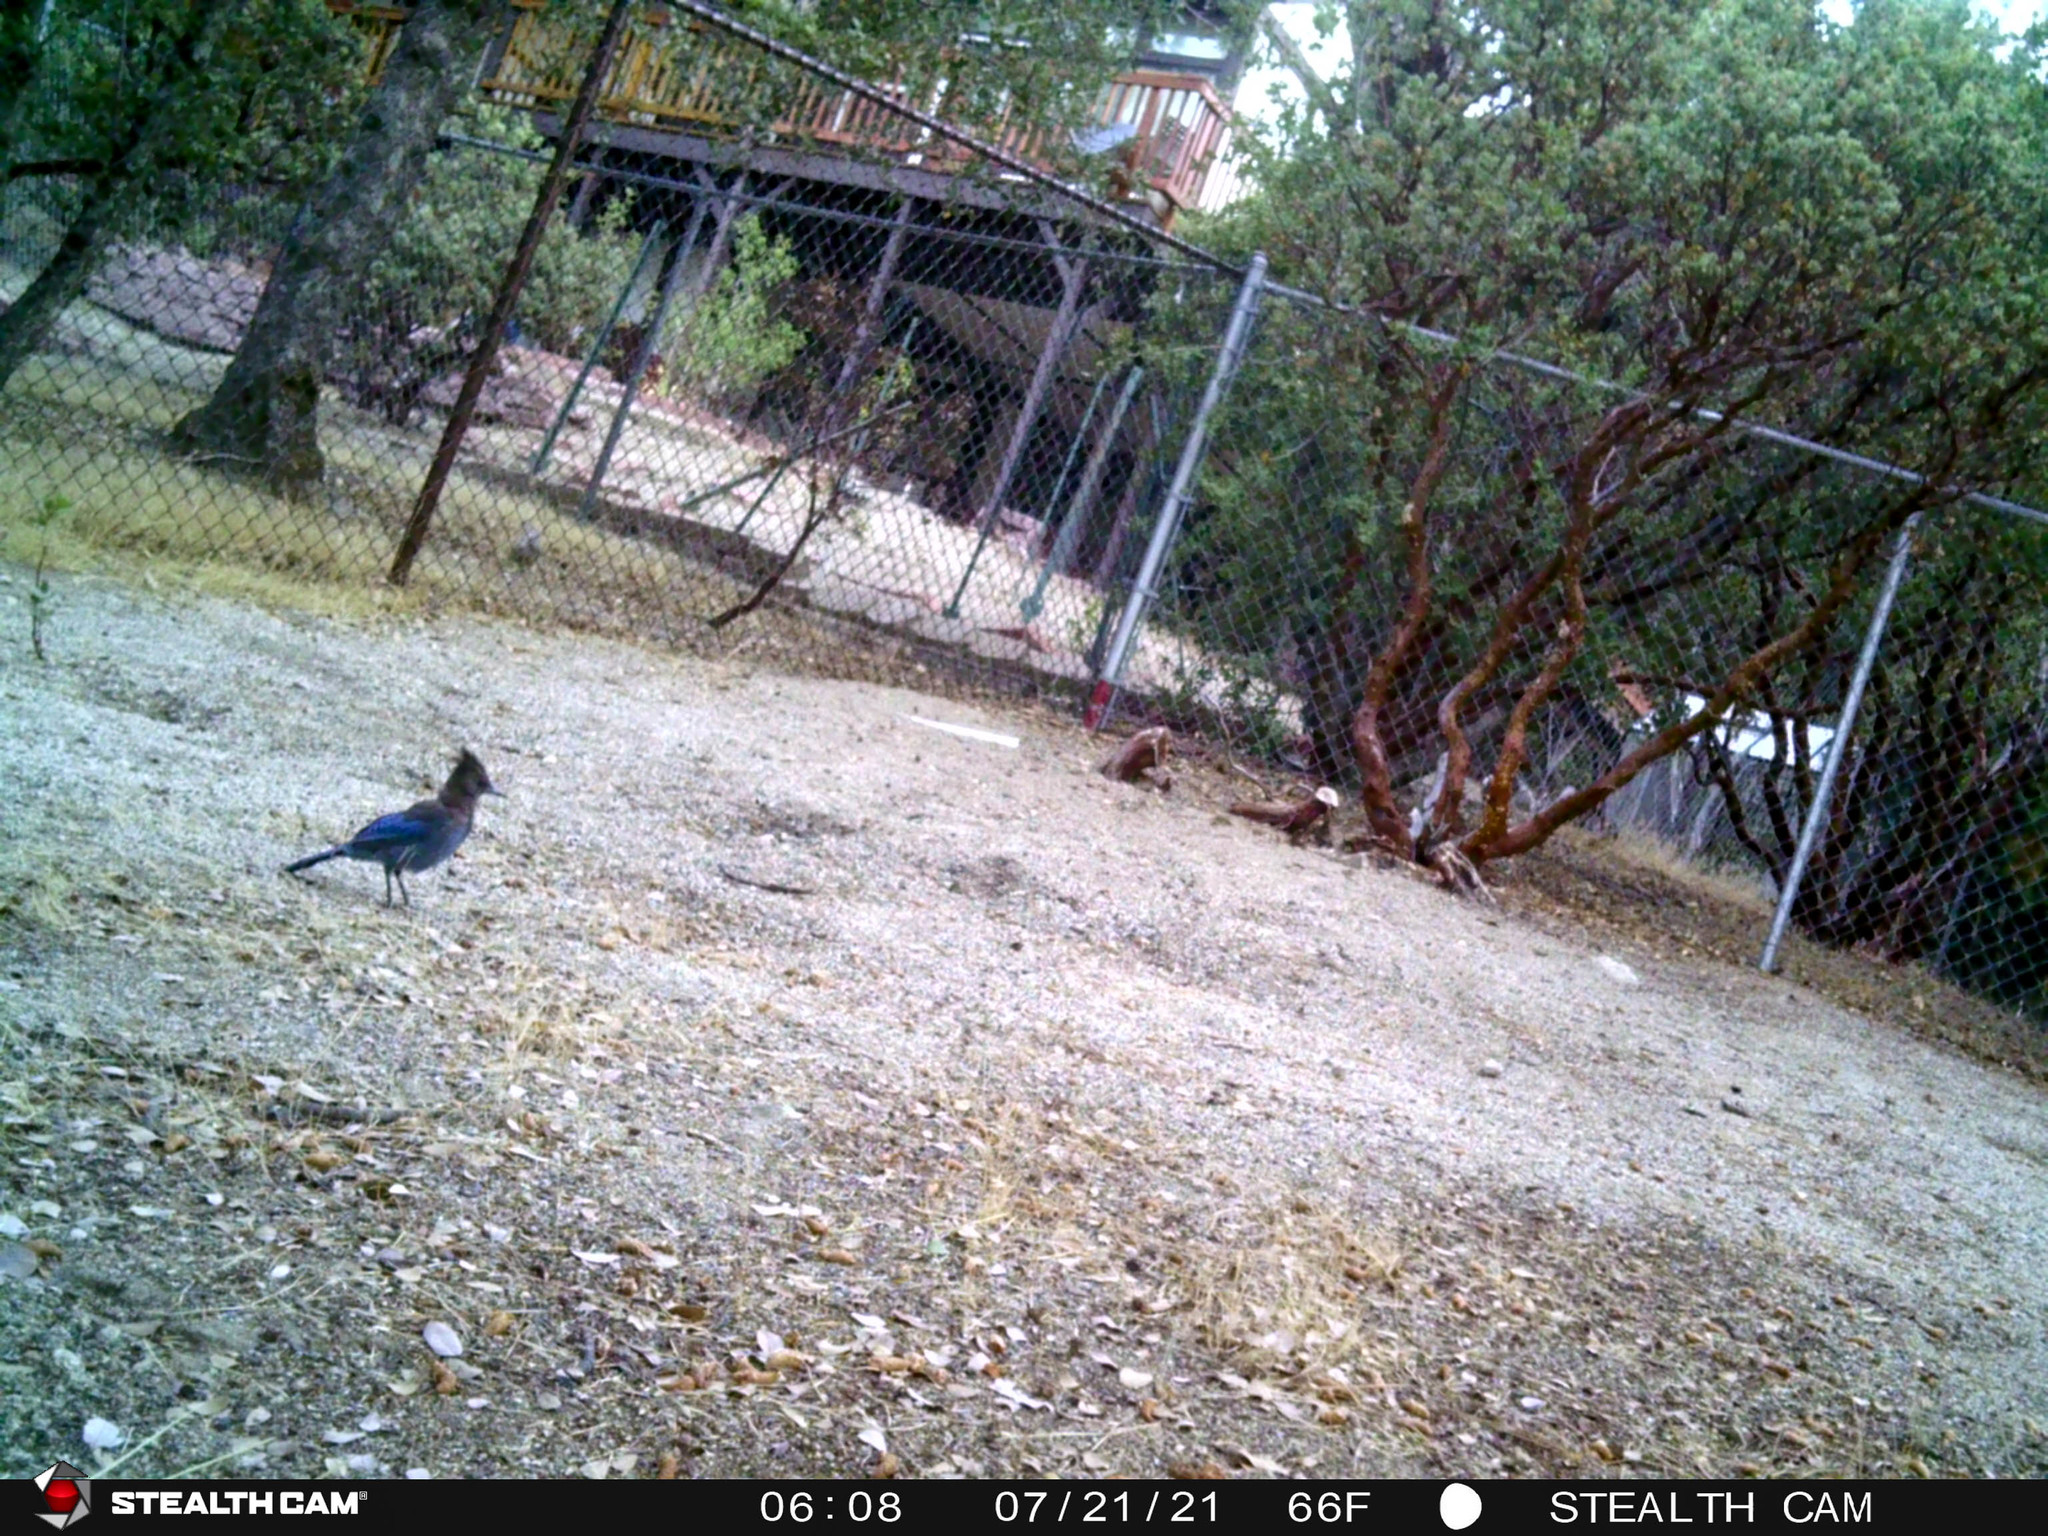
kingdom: Animalia
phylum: Chordata
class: Aves
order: Passeriformes
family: Corvidae
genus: Cyanocitta
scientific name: Cyanocitta stelleri
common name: Steller's jay
